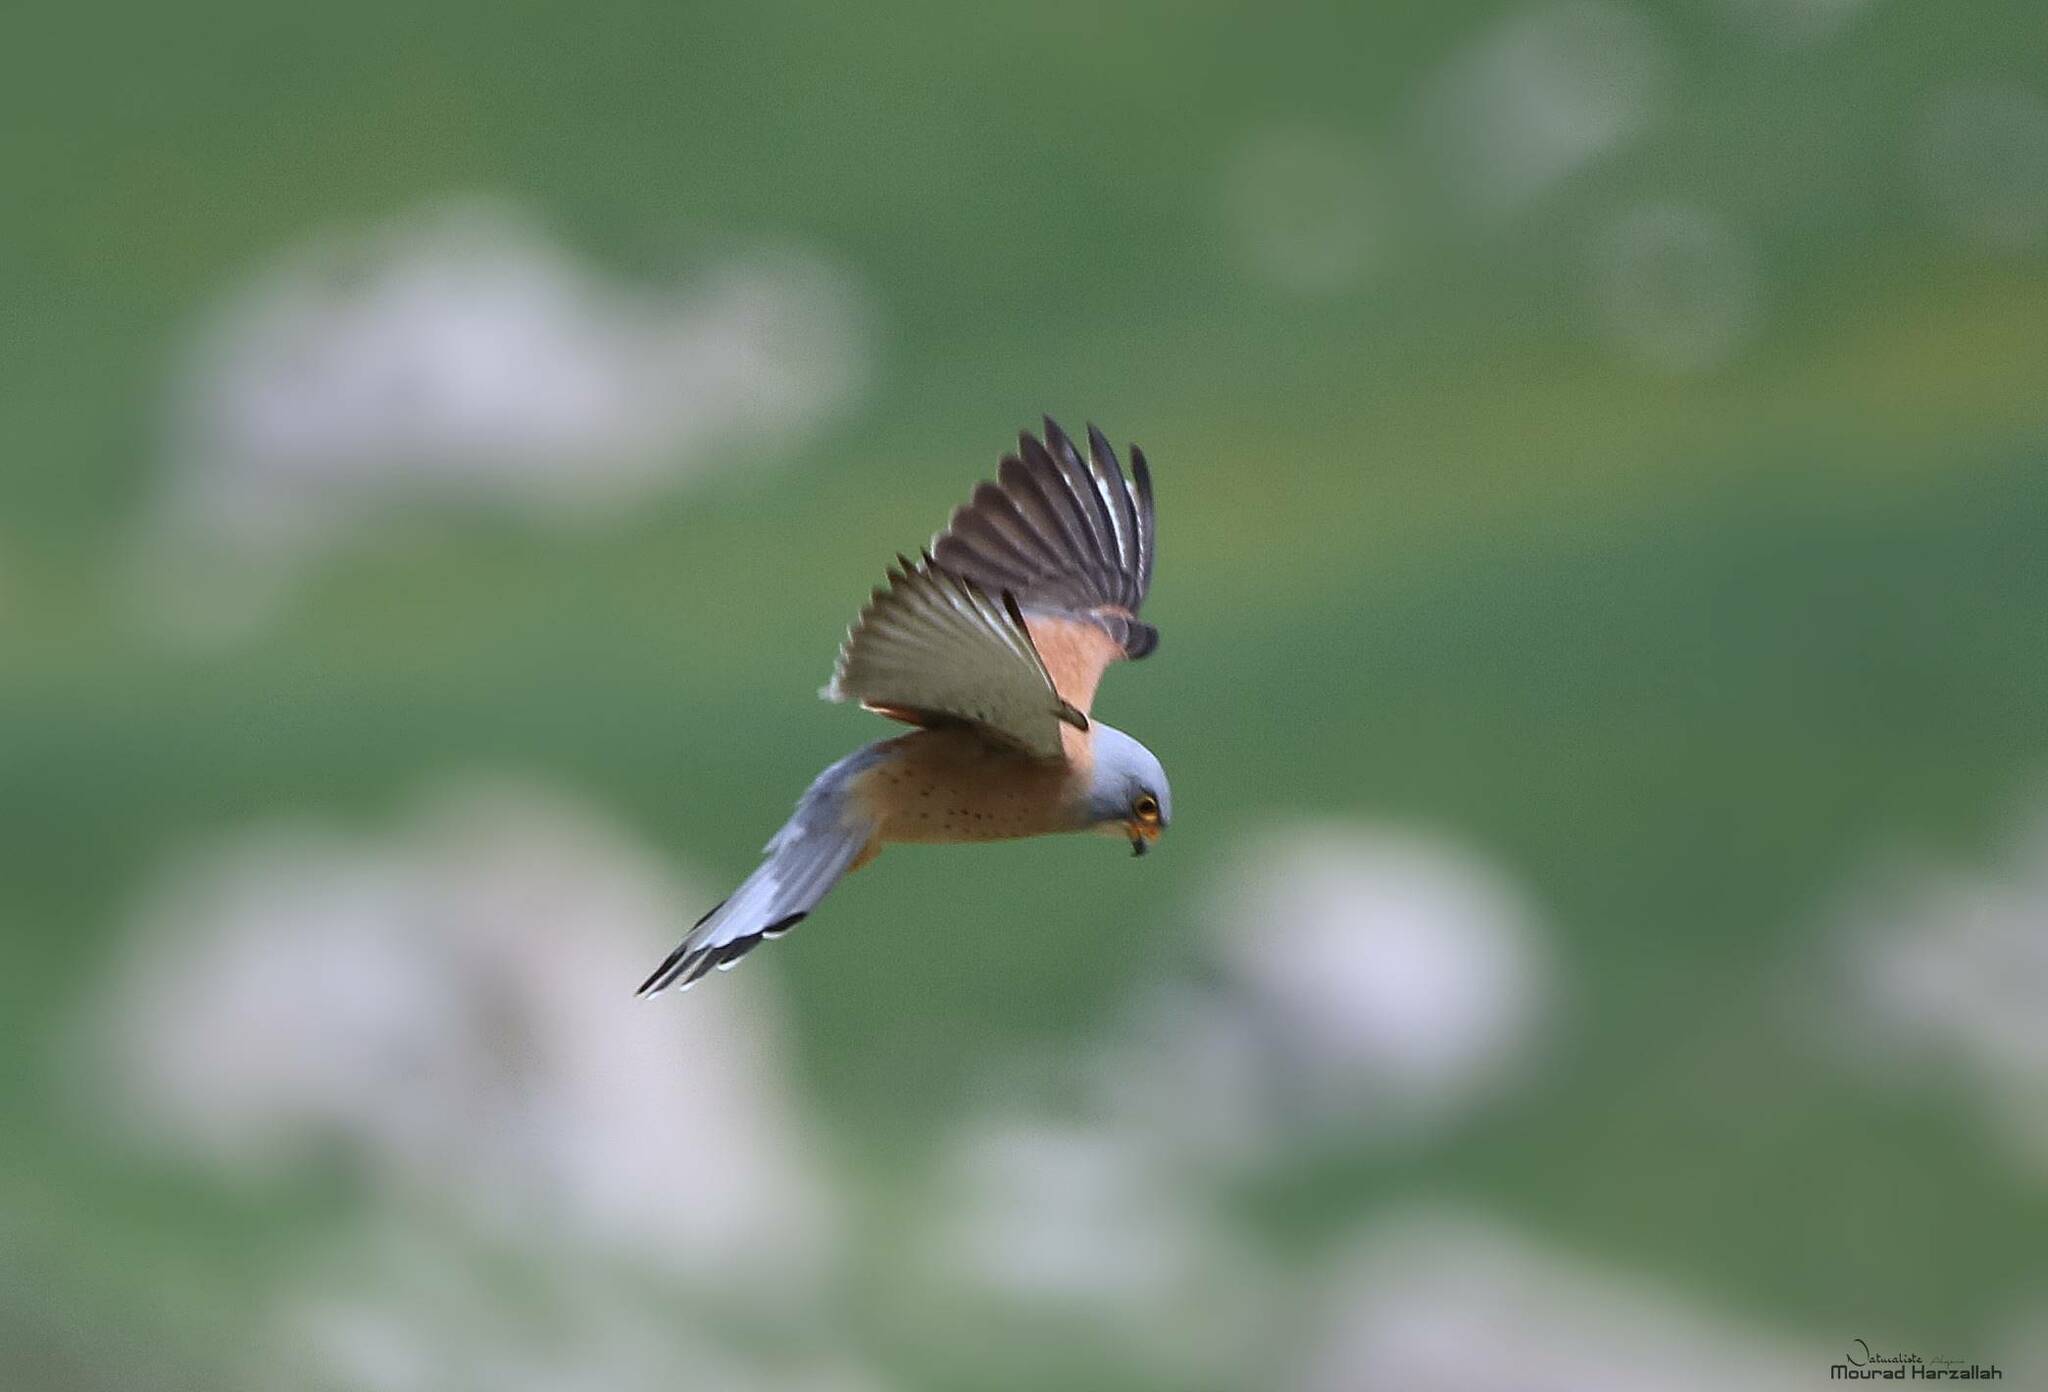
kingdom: Animalia
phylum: Chordata
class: Aves
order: Falconiformes
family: Falconidae
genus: Falco
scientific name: Falco naumanni
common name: Lesser kestrel
